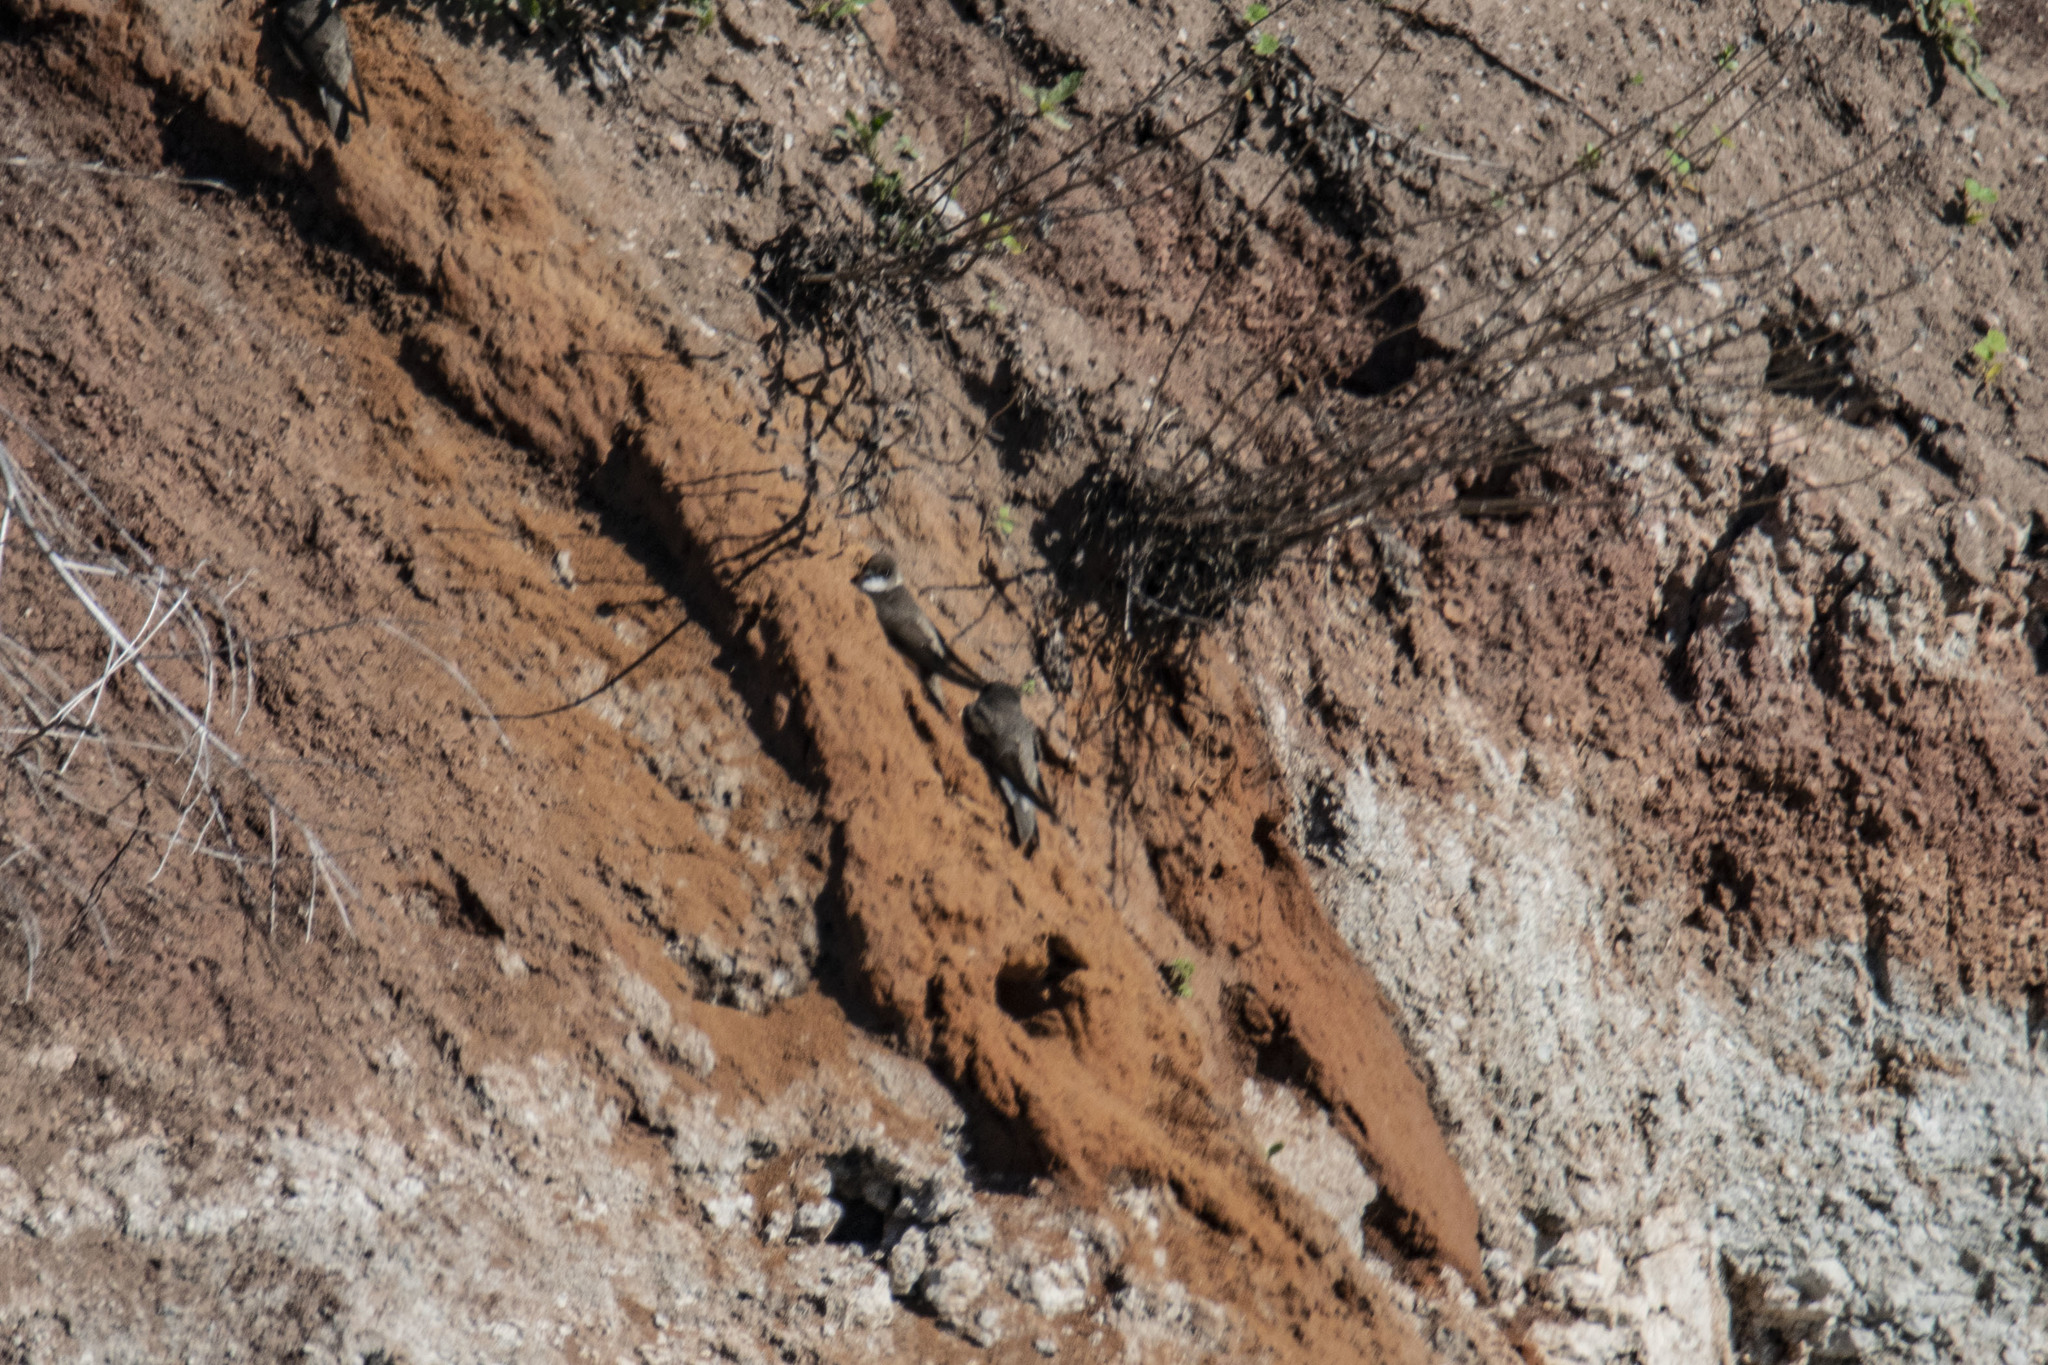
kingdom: Animalia
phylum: Chordata
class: Aves
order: Passeriformes
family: Hirundinidae
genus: Riparia
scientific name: Riparia riparia
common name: Sand martin
